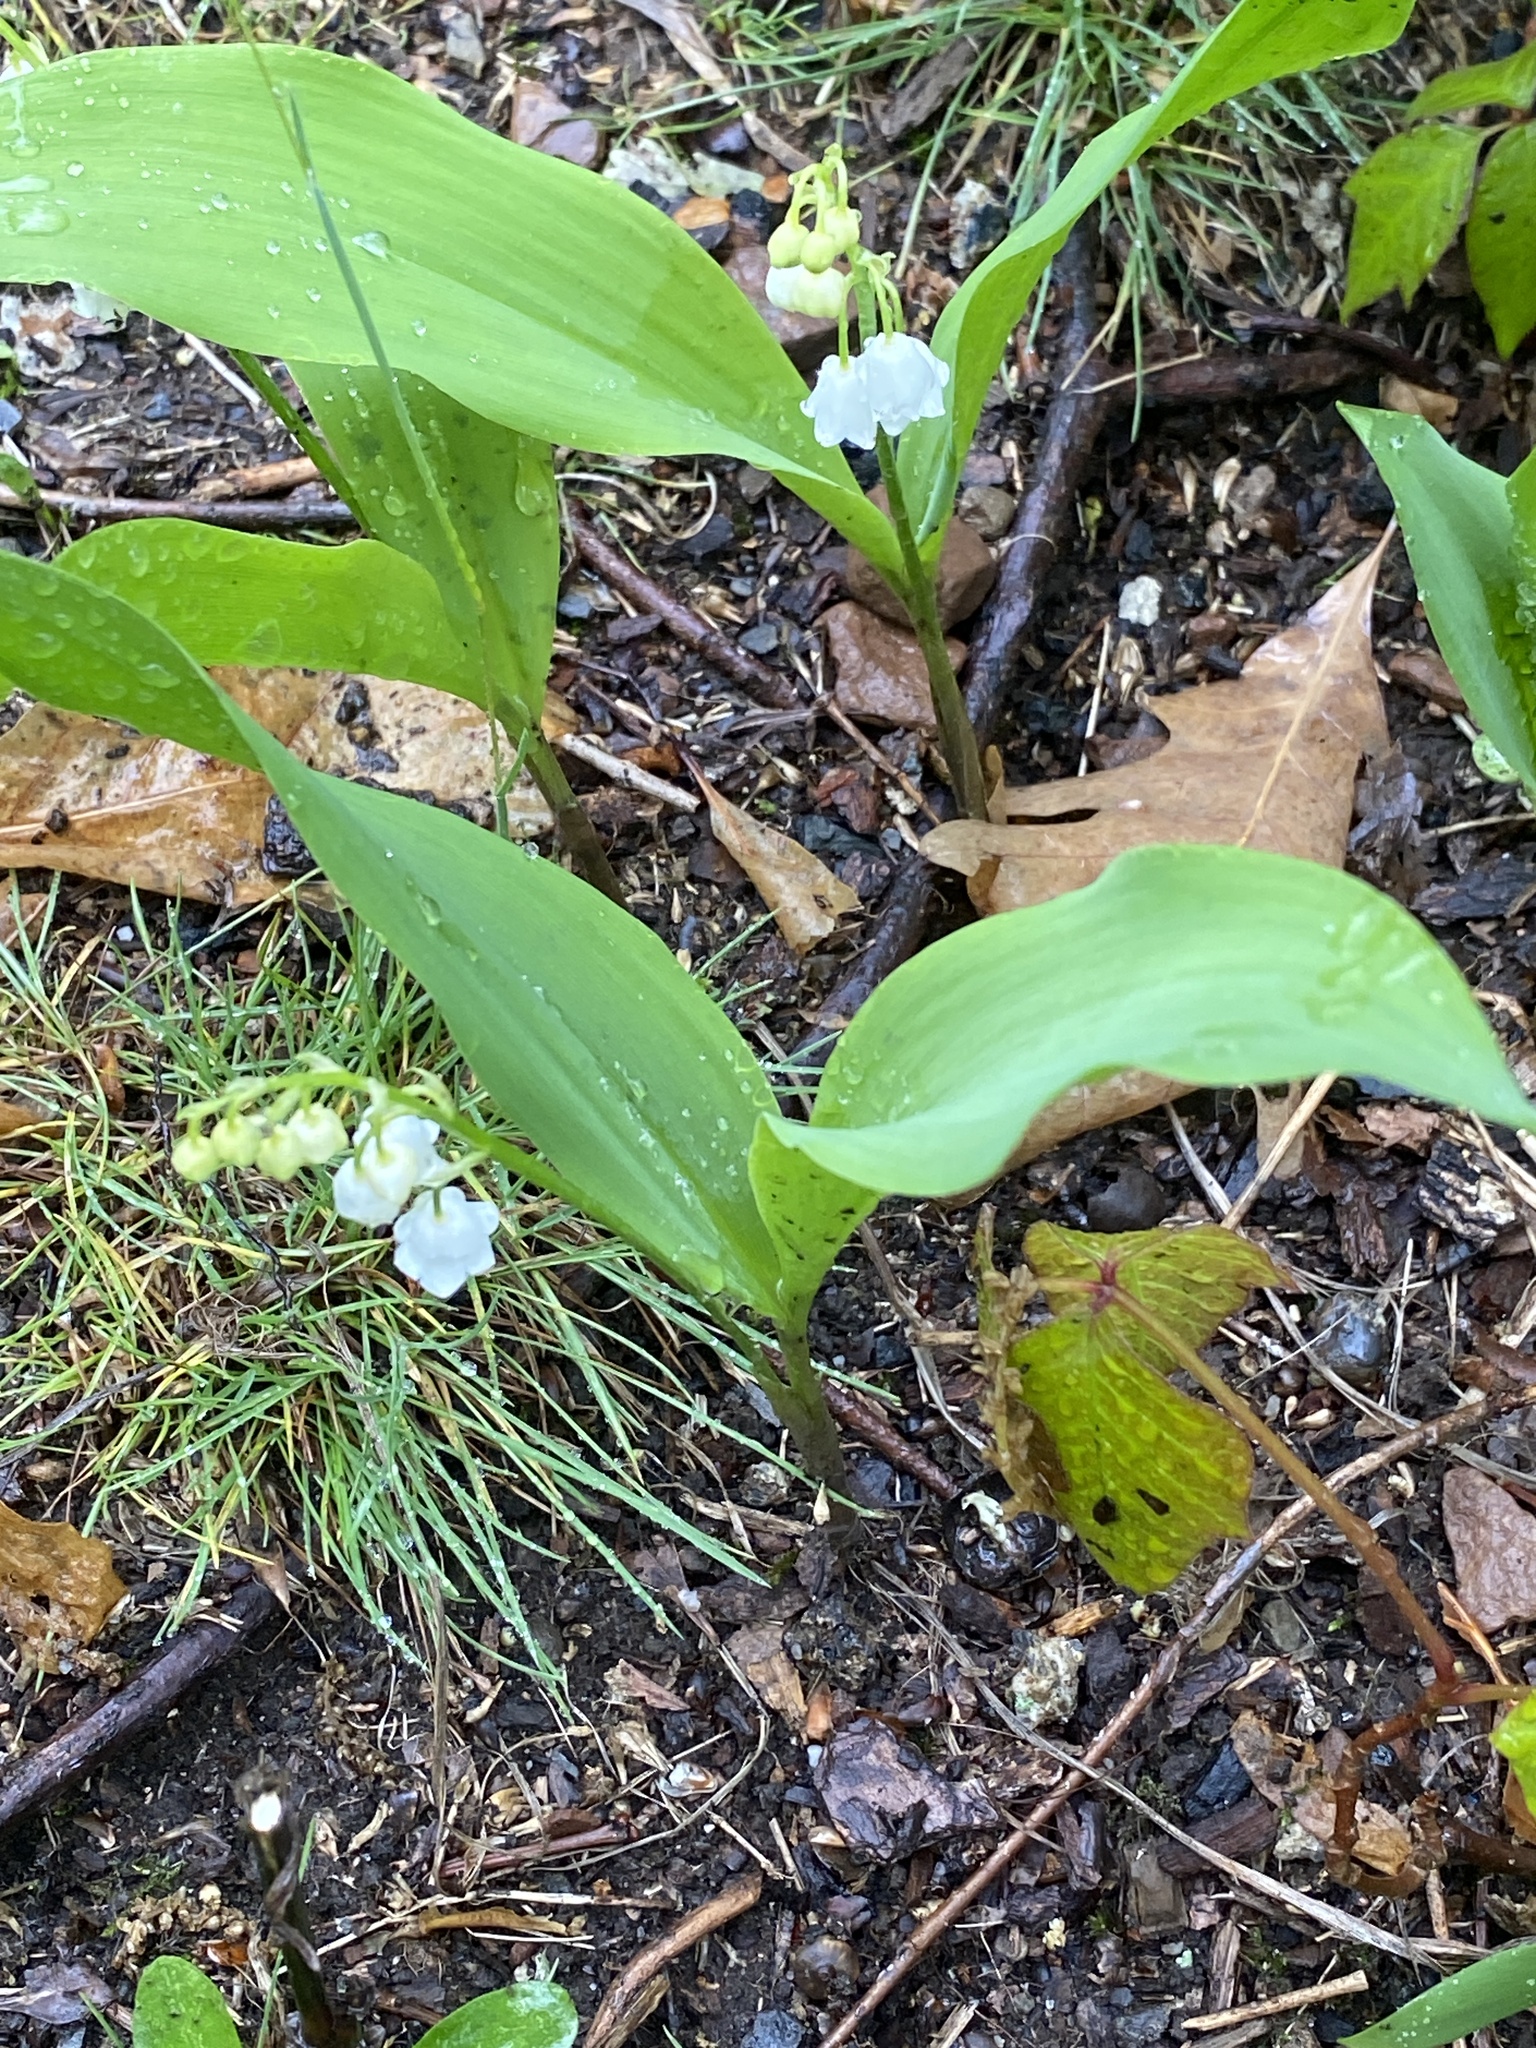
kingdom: Plantae
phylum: Tracheophyta
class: Liliopsida
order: Asparagales
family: Asparagaceae
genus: Convallaria
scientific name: Convallaria majalis
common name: Lily-of-the-valley
